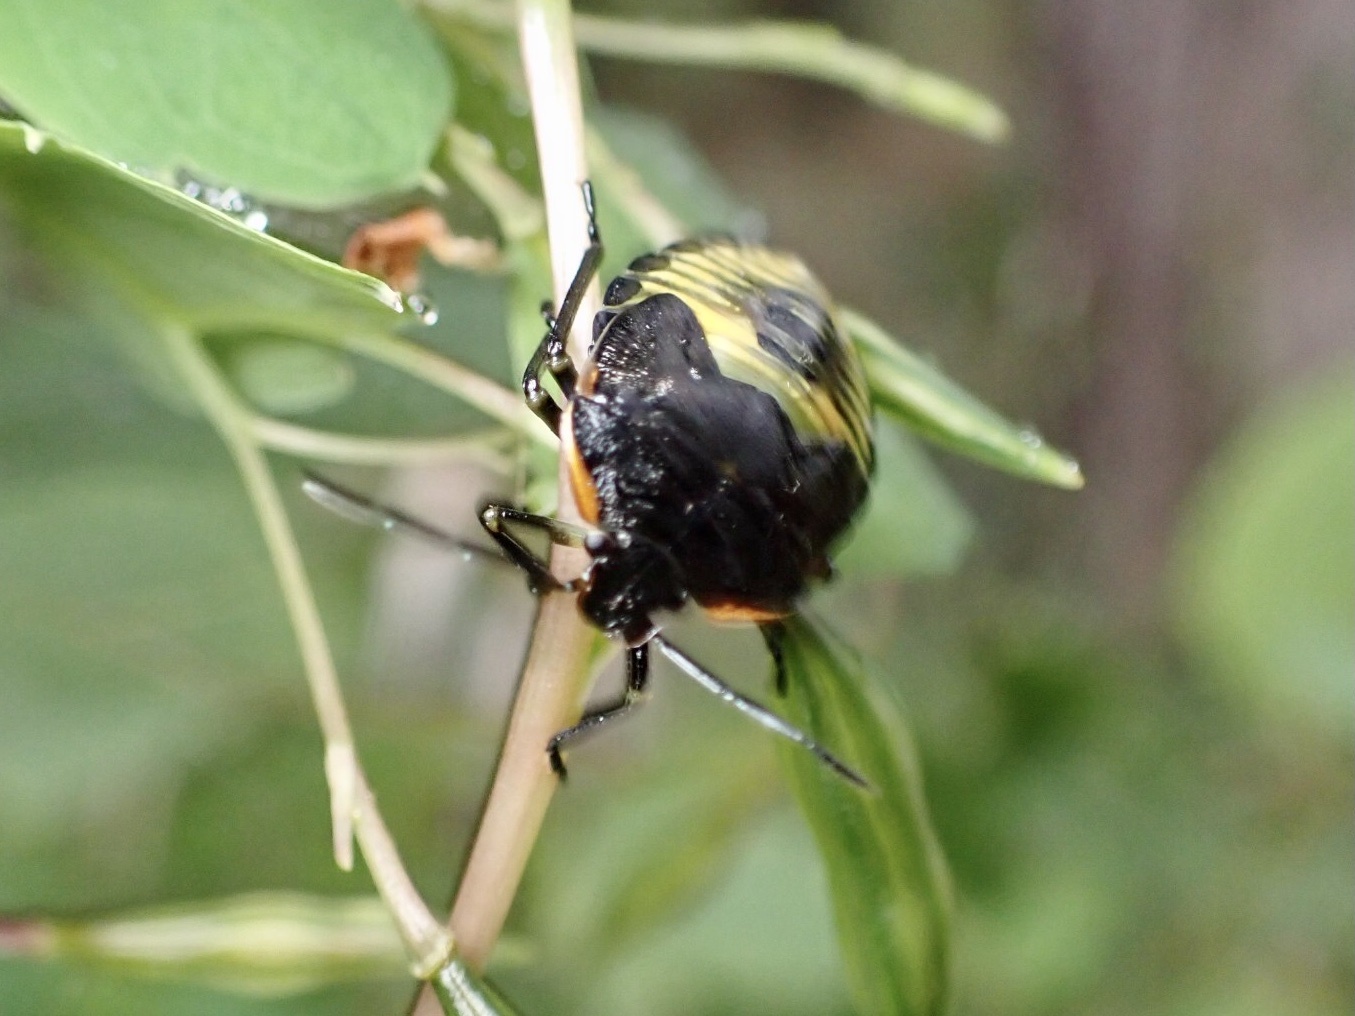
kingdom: Animalia
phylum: Arthropoda
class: Insecta
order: Hemiptera
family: Pentatomidae
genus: Chinavia
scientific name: Chinavia hilaris
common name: Green stink bug
